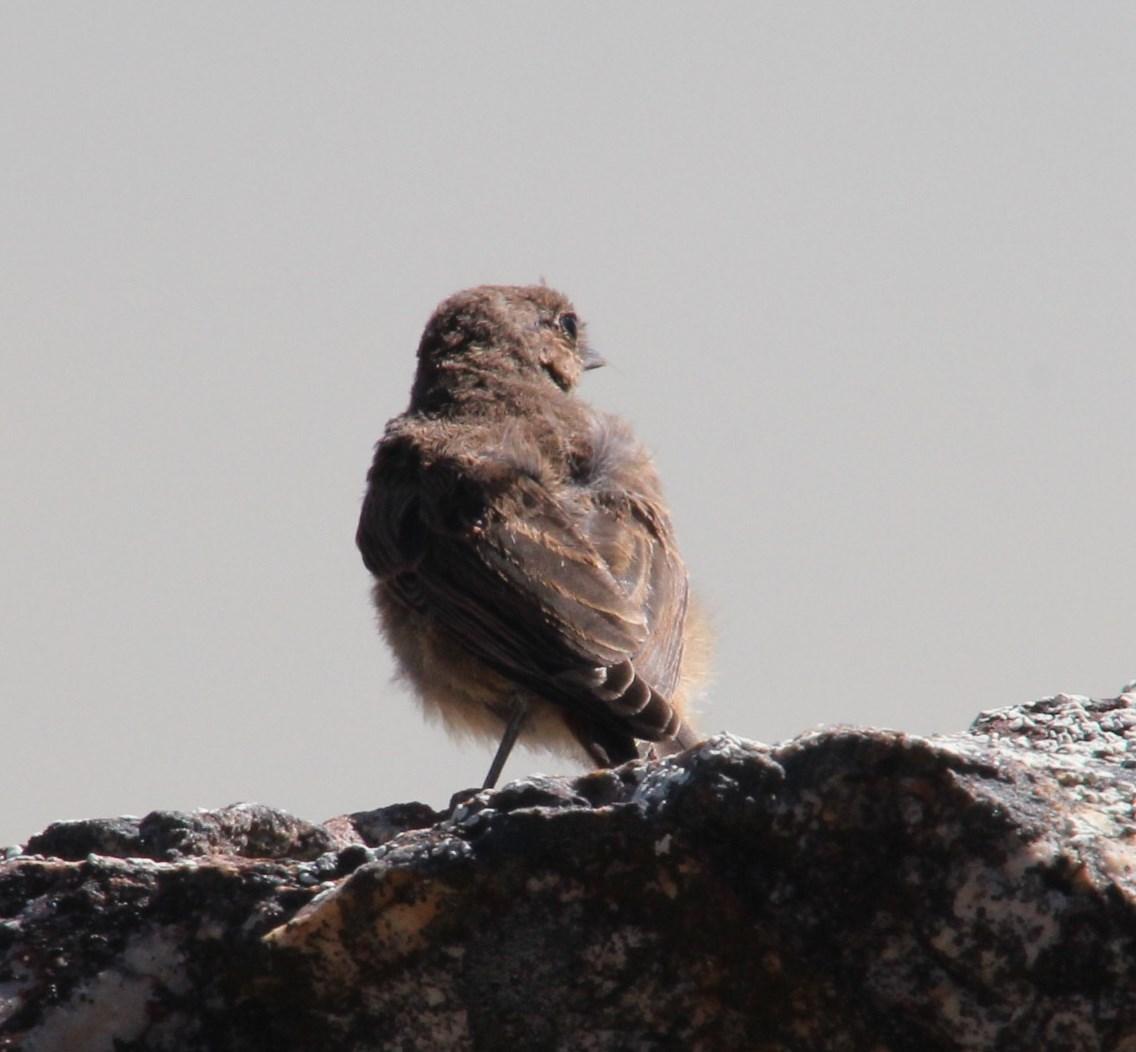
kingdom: Animalia
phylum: Chordata
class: Aves
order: Passeriformes
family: Muscicapidae
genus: Oenanthe
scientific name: Oenanthe familiaris
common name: Familiar chat
